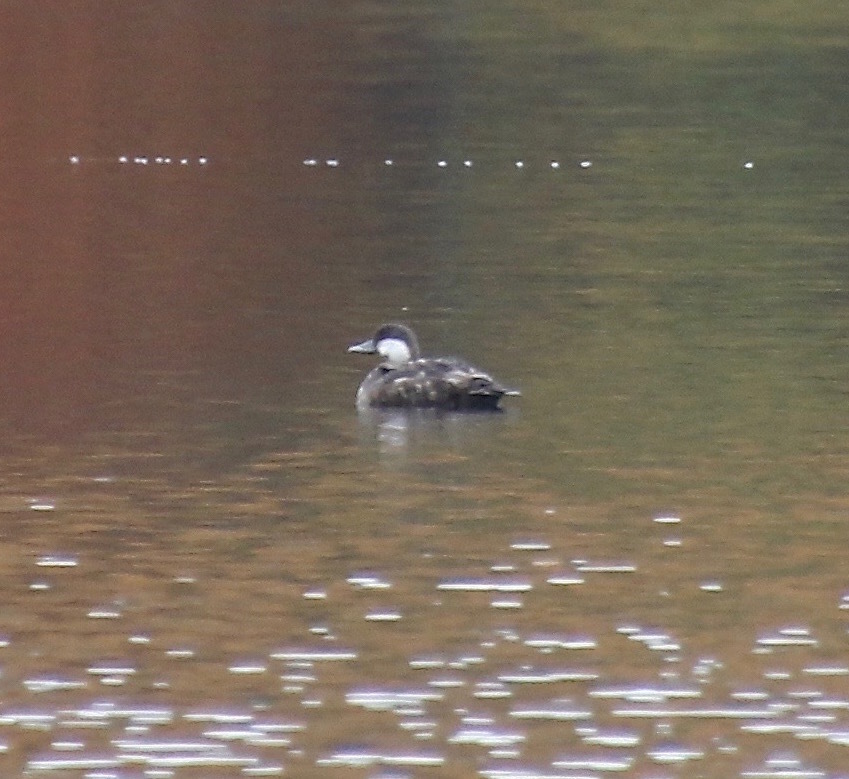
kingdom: Animalia
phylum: Chordata
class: Aves
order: Anseriformes
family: Anatidae
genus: Melanitta
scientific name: Melanitta americana
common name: Black scoter
